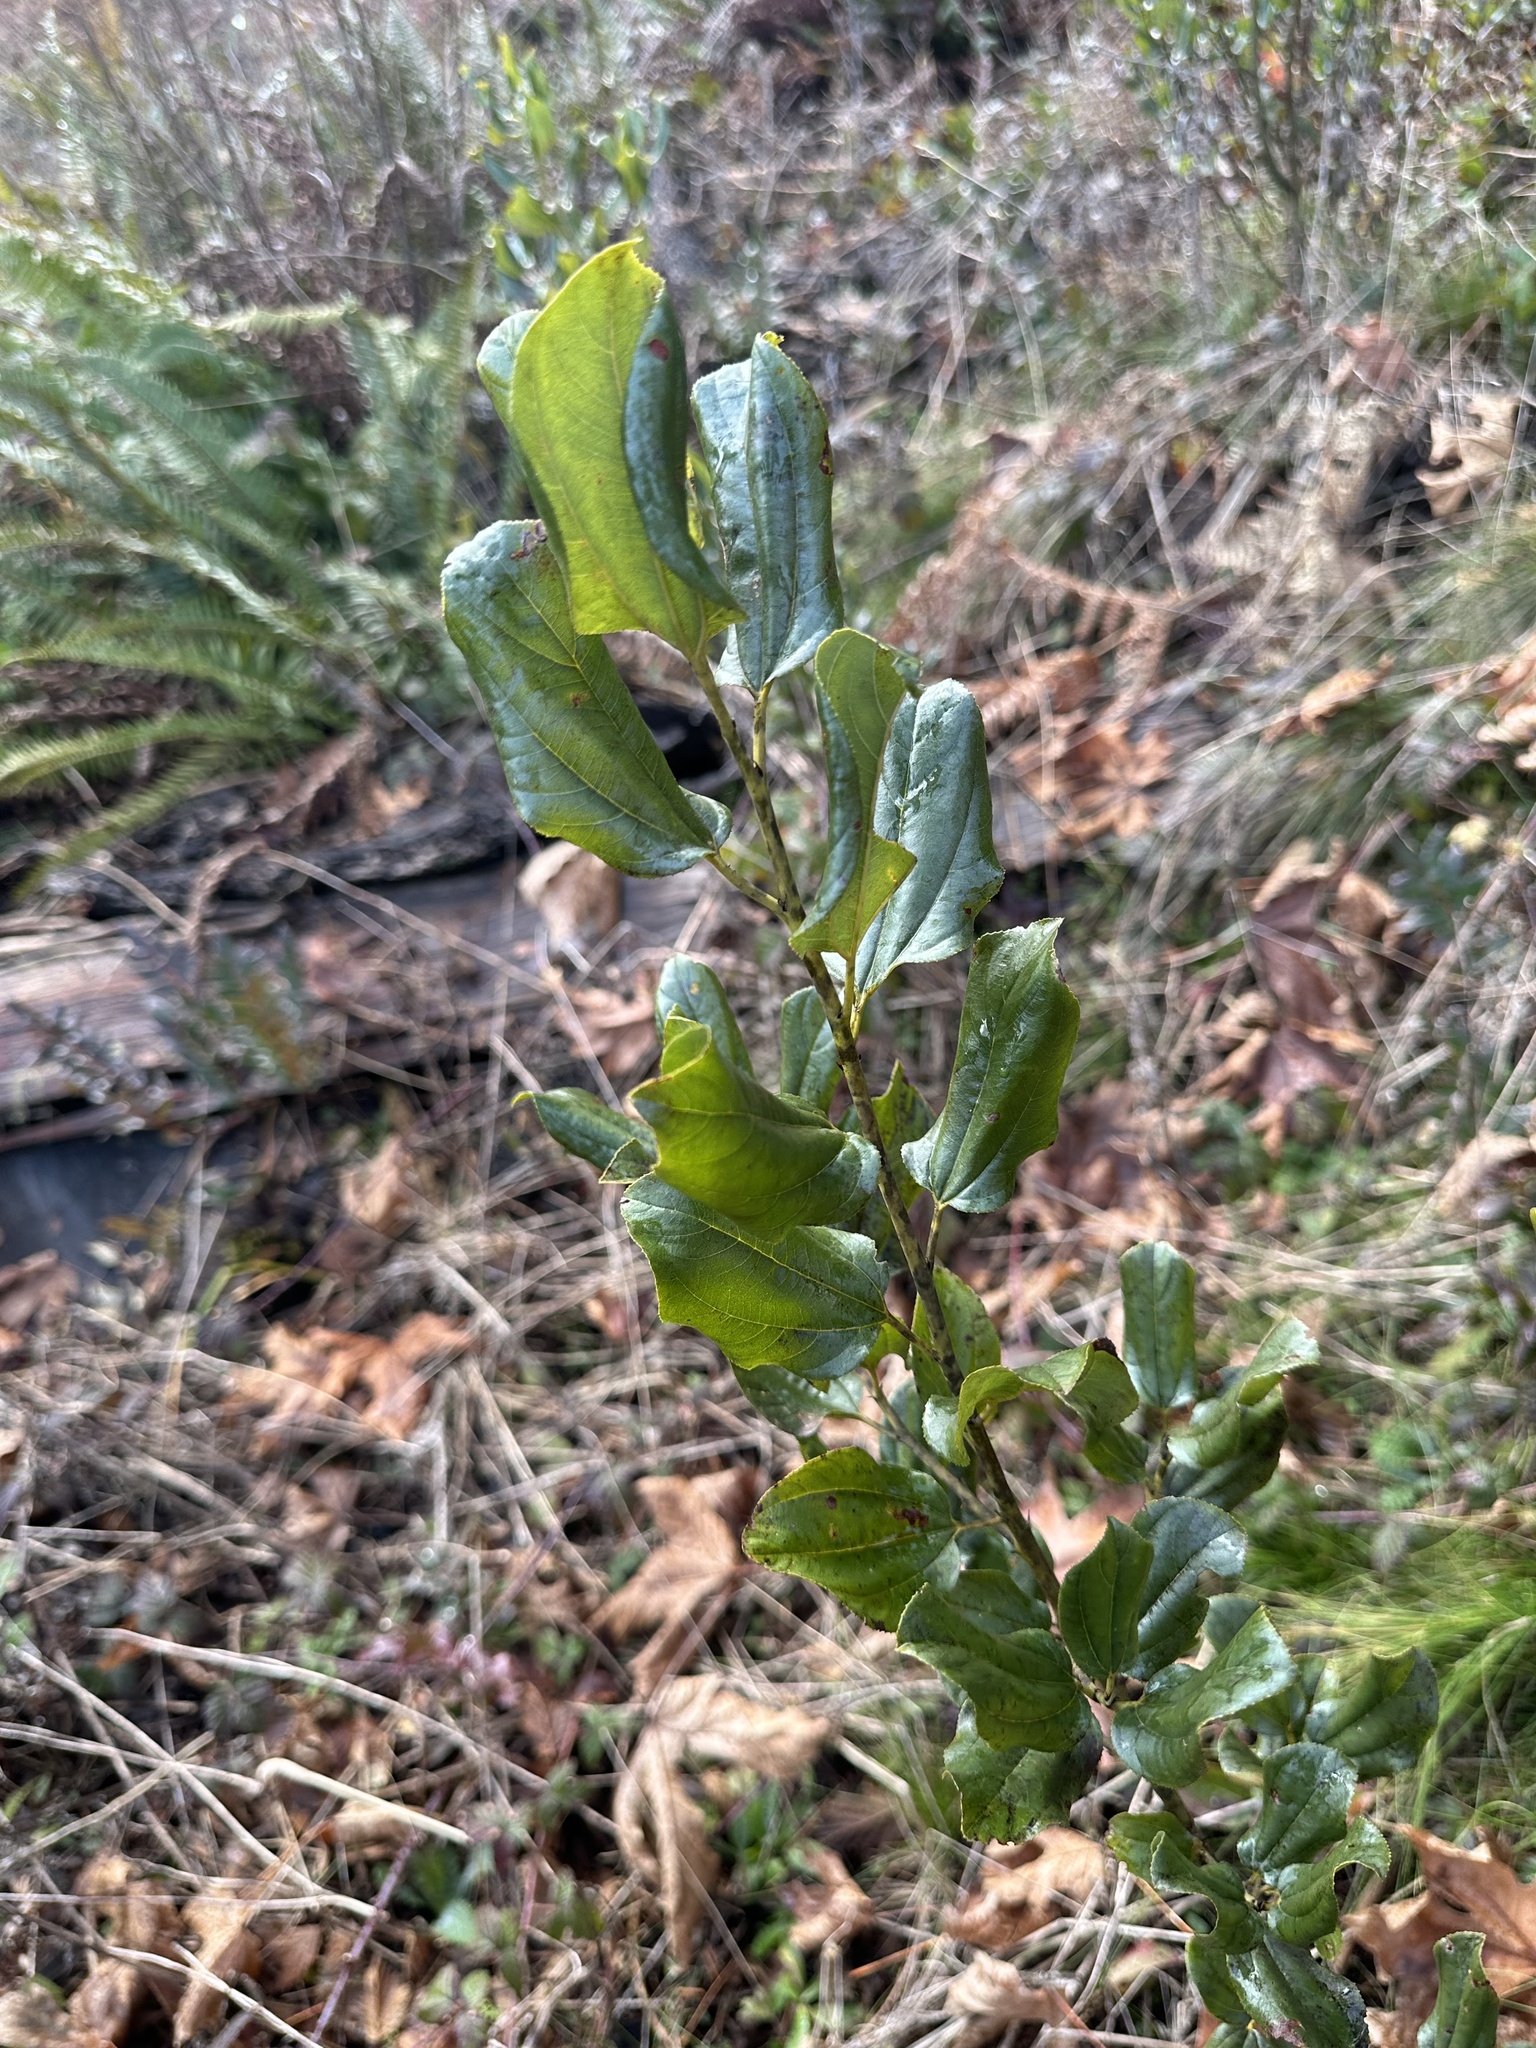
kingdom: Plantae
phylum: Tracheophyta
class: Magnoliopsida
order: Rosales
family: Rhamnaceae
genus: Ceanothus
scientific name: Ceanothus velutinus
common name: Snowbrush
